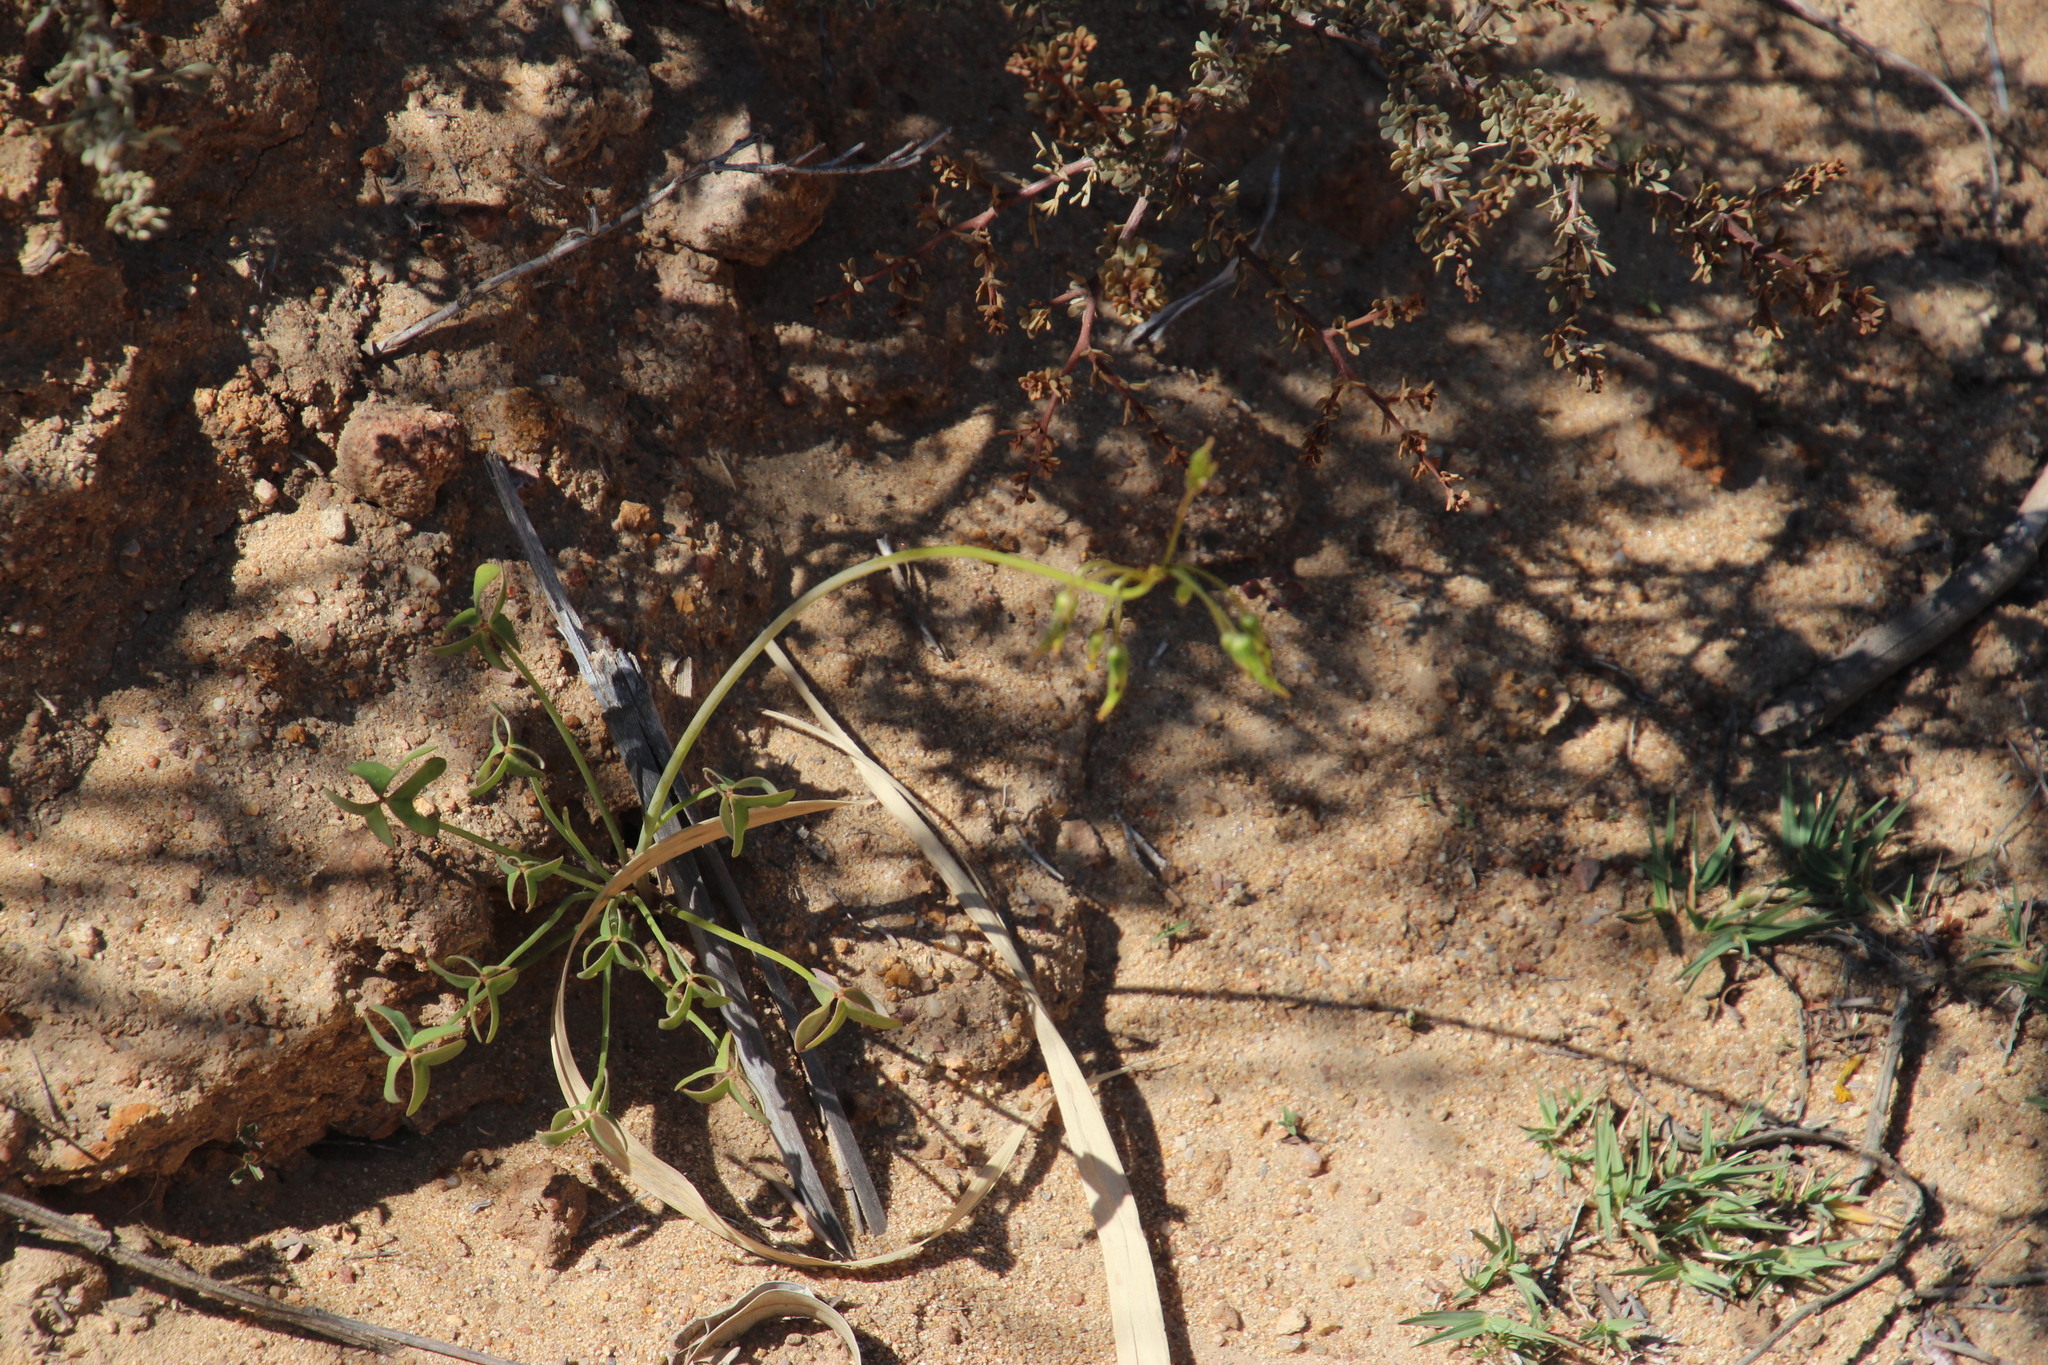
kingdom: Plantae
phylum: Tracheophyta
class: Magnoliopsida
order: Oxalidales
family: Oxalidaceae
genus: Oxalis
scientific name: Oxalis pes-caprae
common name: Bermuda-buttercup
